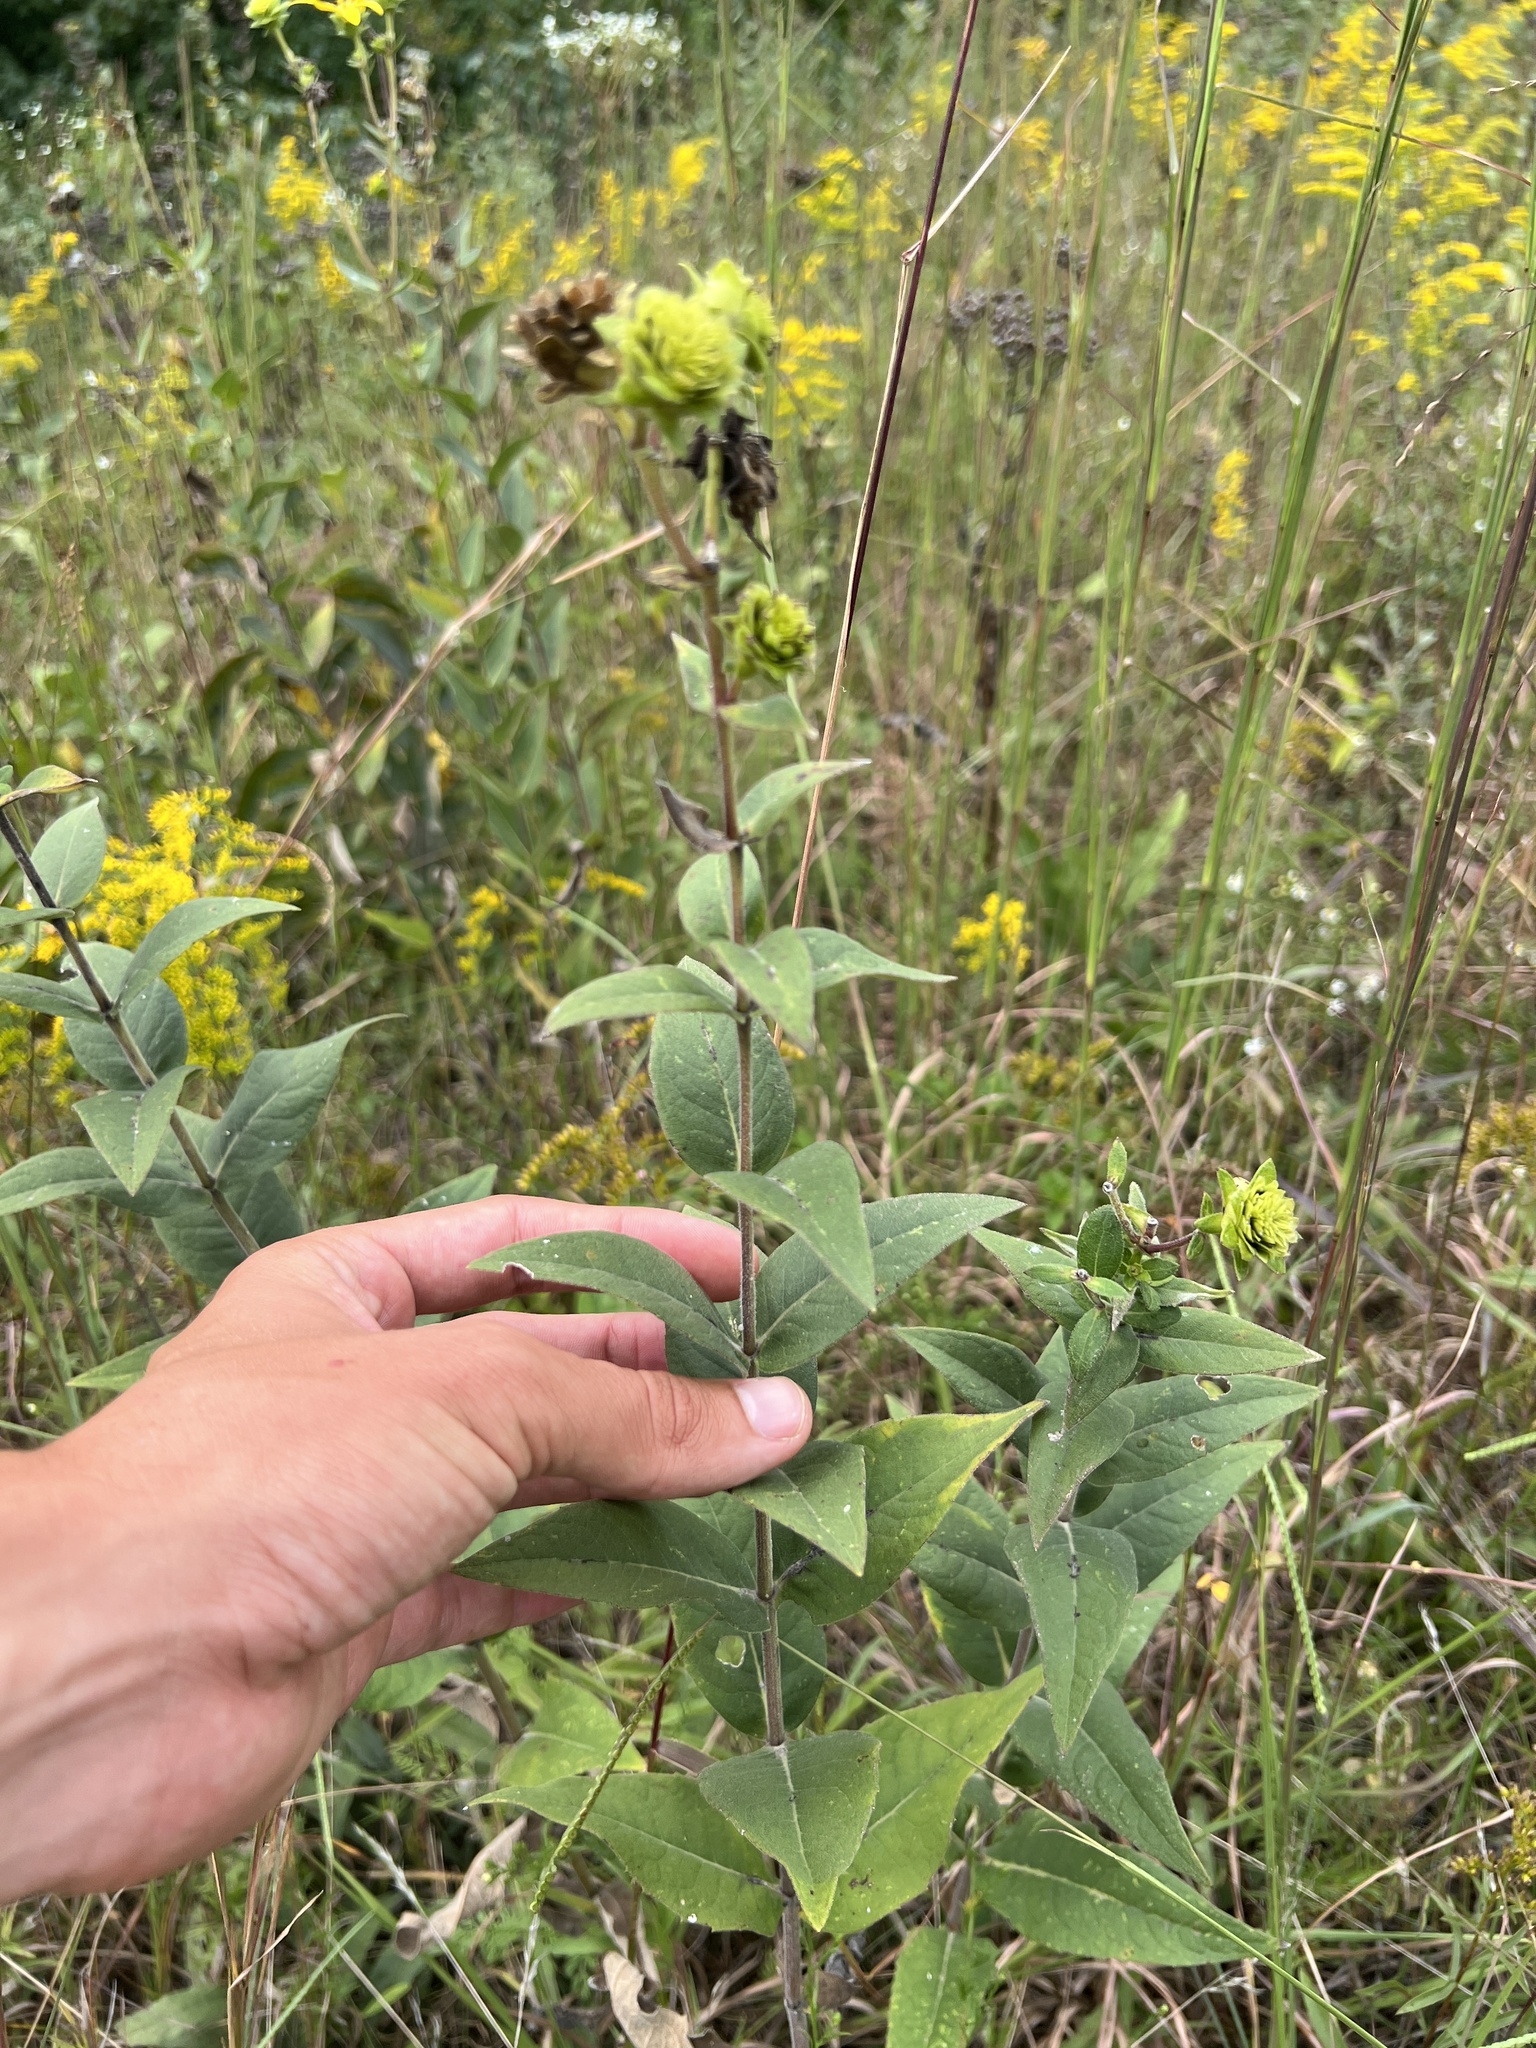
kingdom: Plantae
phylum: Tracheophyta
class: Magnoliopsida
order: Asterales
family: Asteraceae
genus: Silphium
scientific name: Silphium integrifolium
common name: Whole-leaf rosinweed
